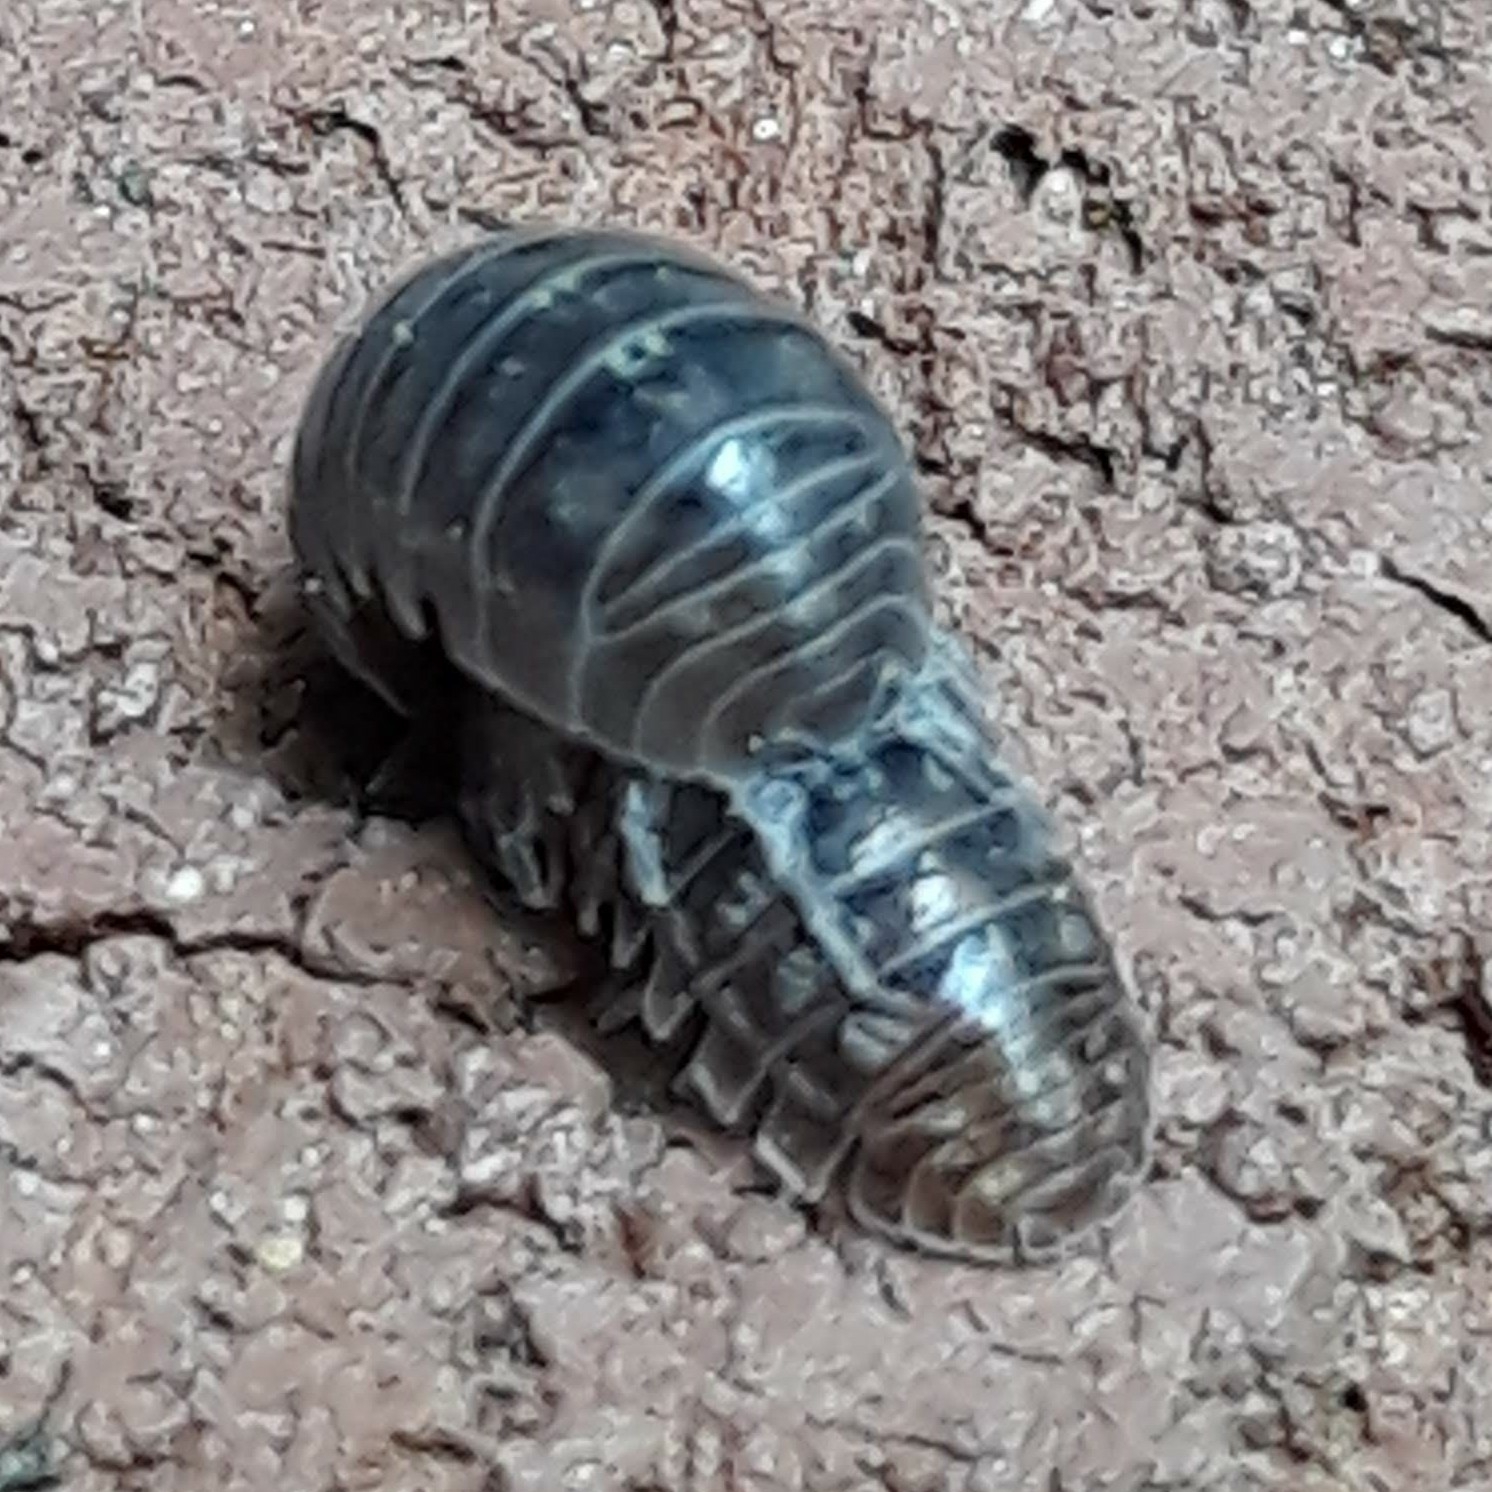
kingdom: Animalia
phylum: Arthropoda
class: Malacostraca
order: Isopoda
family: Armadillidiidae
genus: Armadillidium
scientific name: Armadillidium vulgare
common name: Common pill woodlouse
